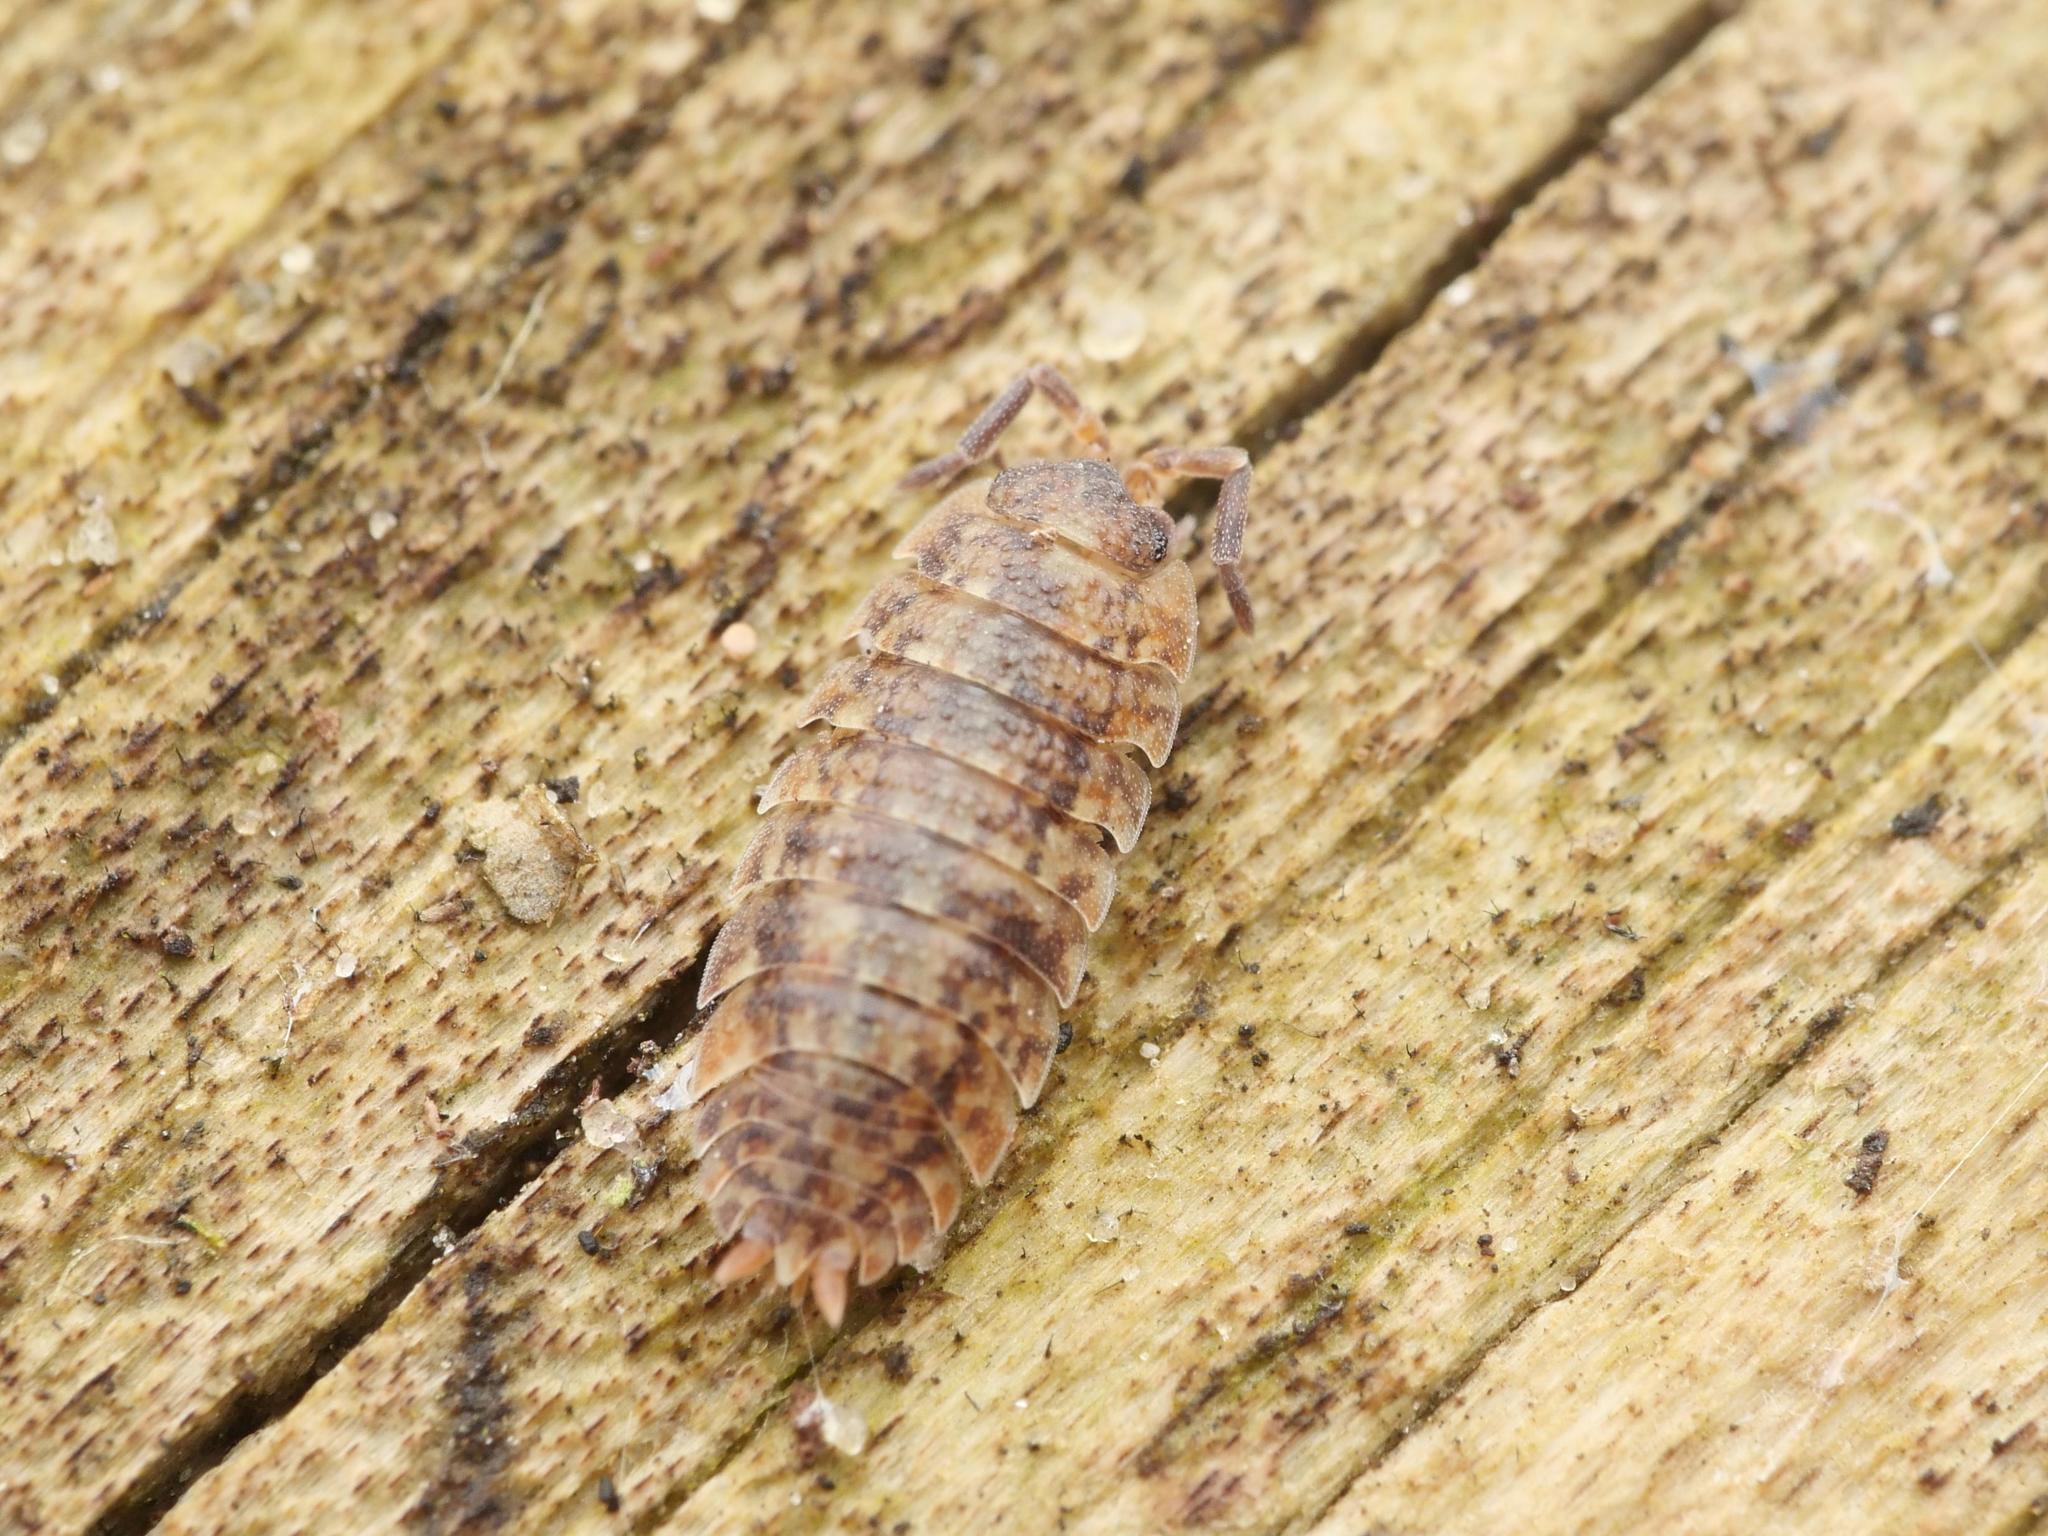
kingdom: Animalia
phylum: Arthropoda
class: Malacostraca
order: Isopoda
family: Porcellionidae
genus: Porcellio
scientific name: Porcellio scaber
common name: Common rough woodlouse
